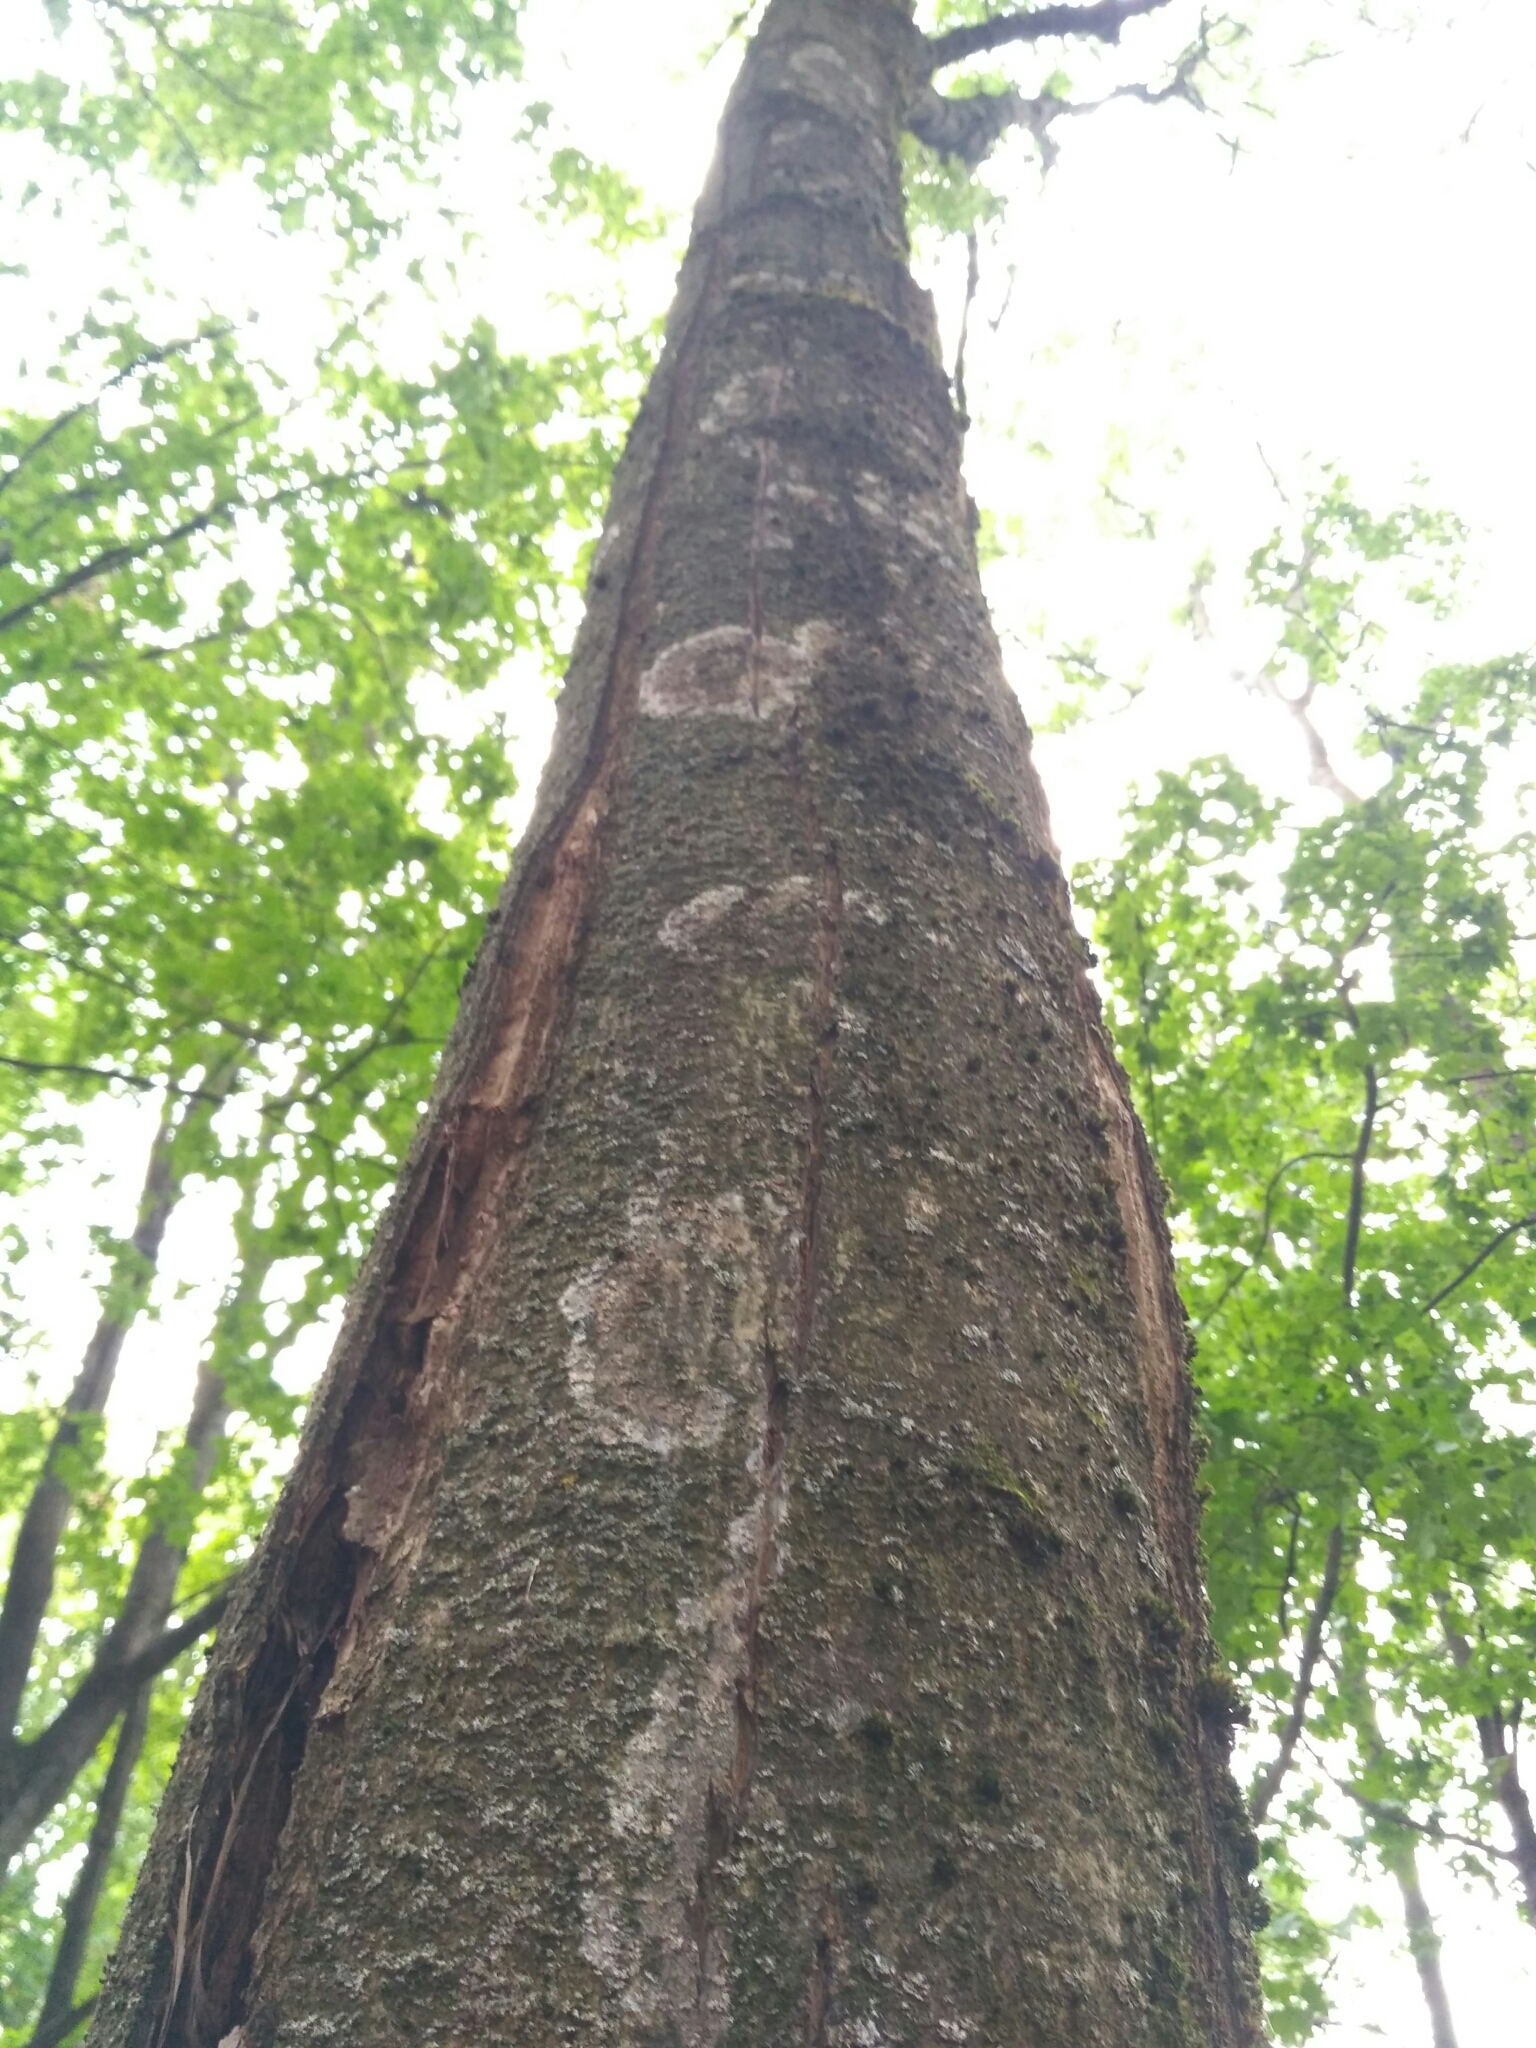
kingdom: Fungi
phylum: Basidiomycota
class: Agaricomycetes
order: Atheliales
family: Atheliaceae
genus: Athelia
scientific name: Athelia arachnoidea
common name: Candelabra duster
